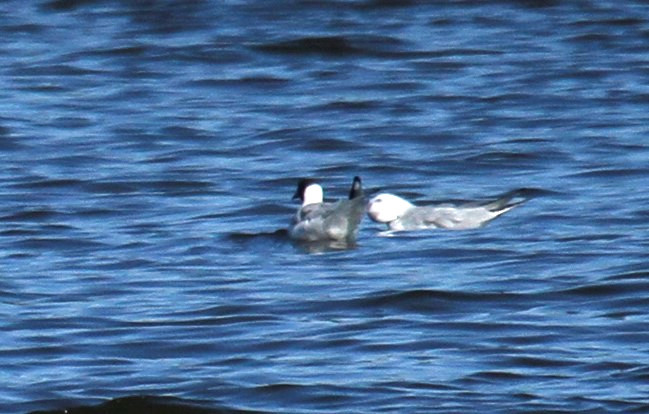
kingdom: Animalia
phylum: Chordata
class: Aves
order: Charadriiformes
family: Laridae
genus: Chroicocephalus
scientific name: Chroicocephalus ridibundus
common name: Black-headed gull
